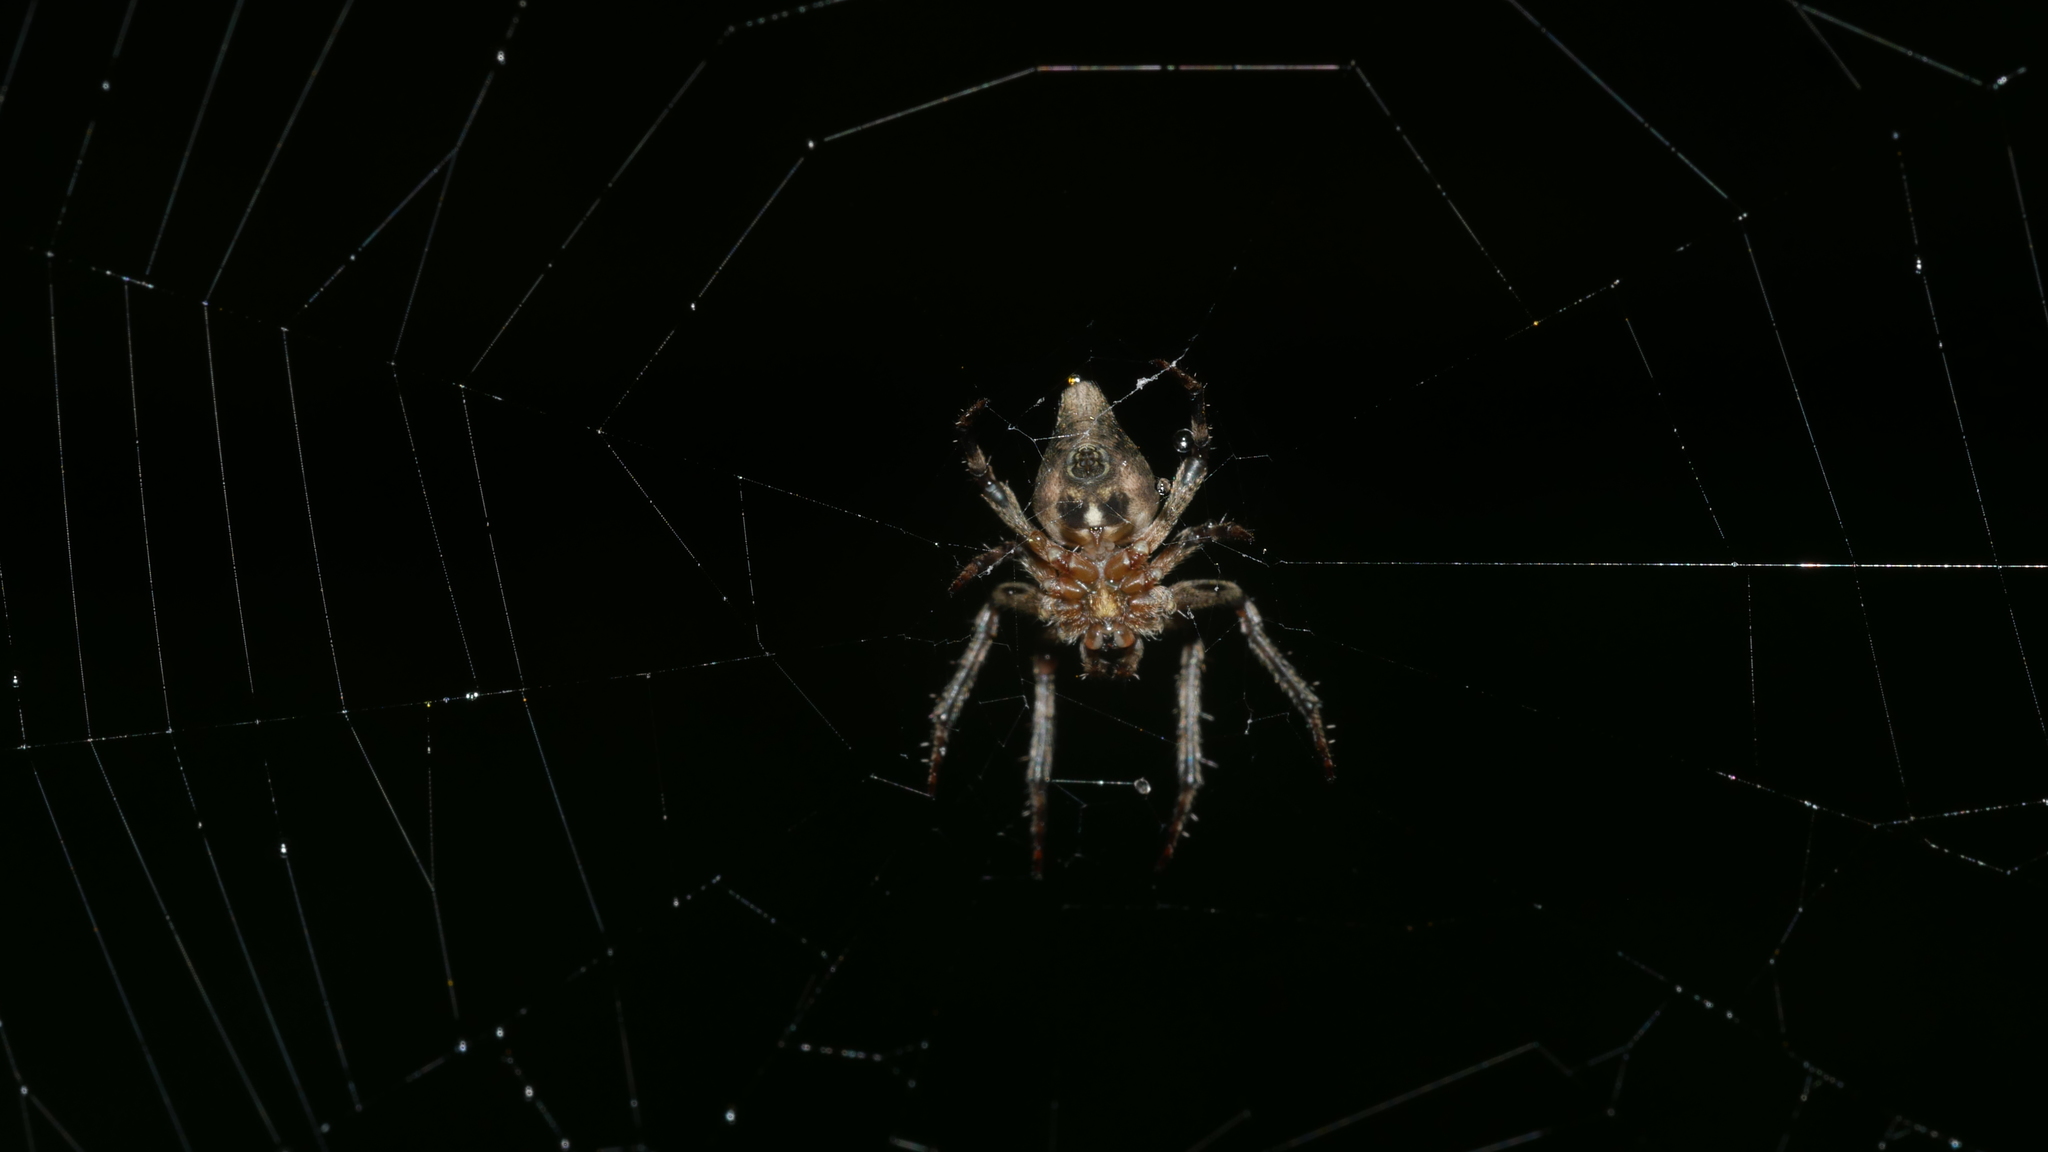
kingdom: Animalia
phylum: Arthropoda
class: Arachnida
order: Araneae
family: Araneidae
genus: Eustala
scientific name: Eustala
